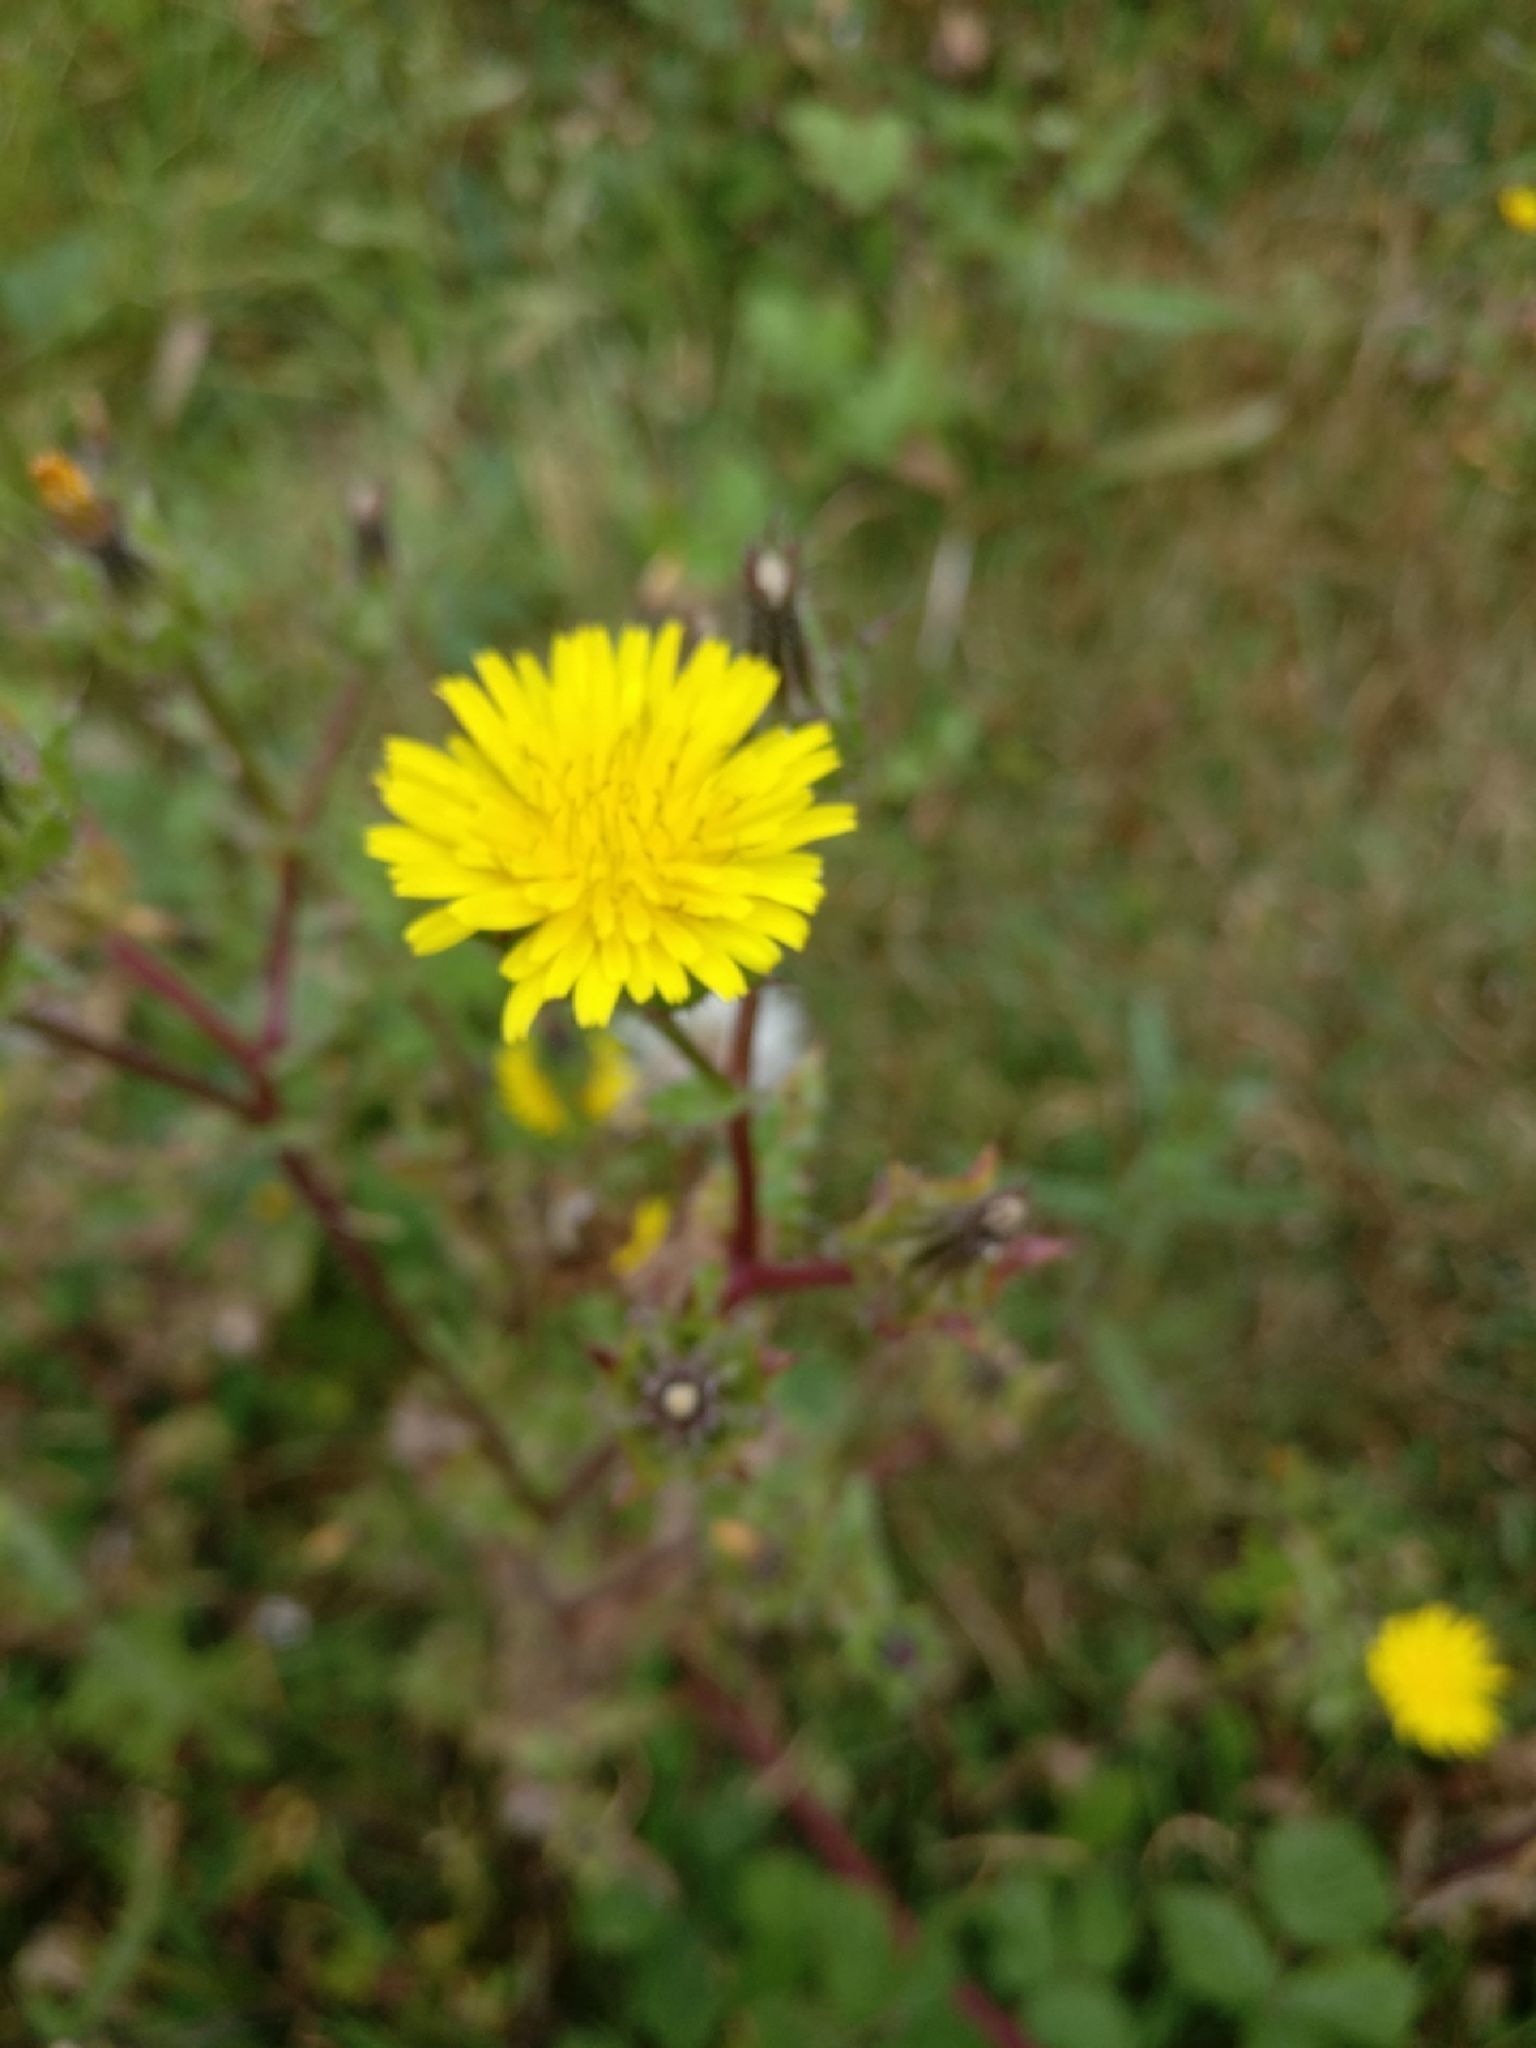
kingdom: Plantae
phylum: Tracheophyta
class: Magnoliopsida
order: Asterales
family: Asteraceae
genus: Helminthotheca
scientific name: Helminthotheca echioides
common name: Ox-tongue
